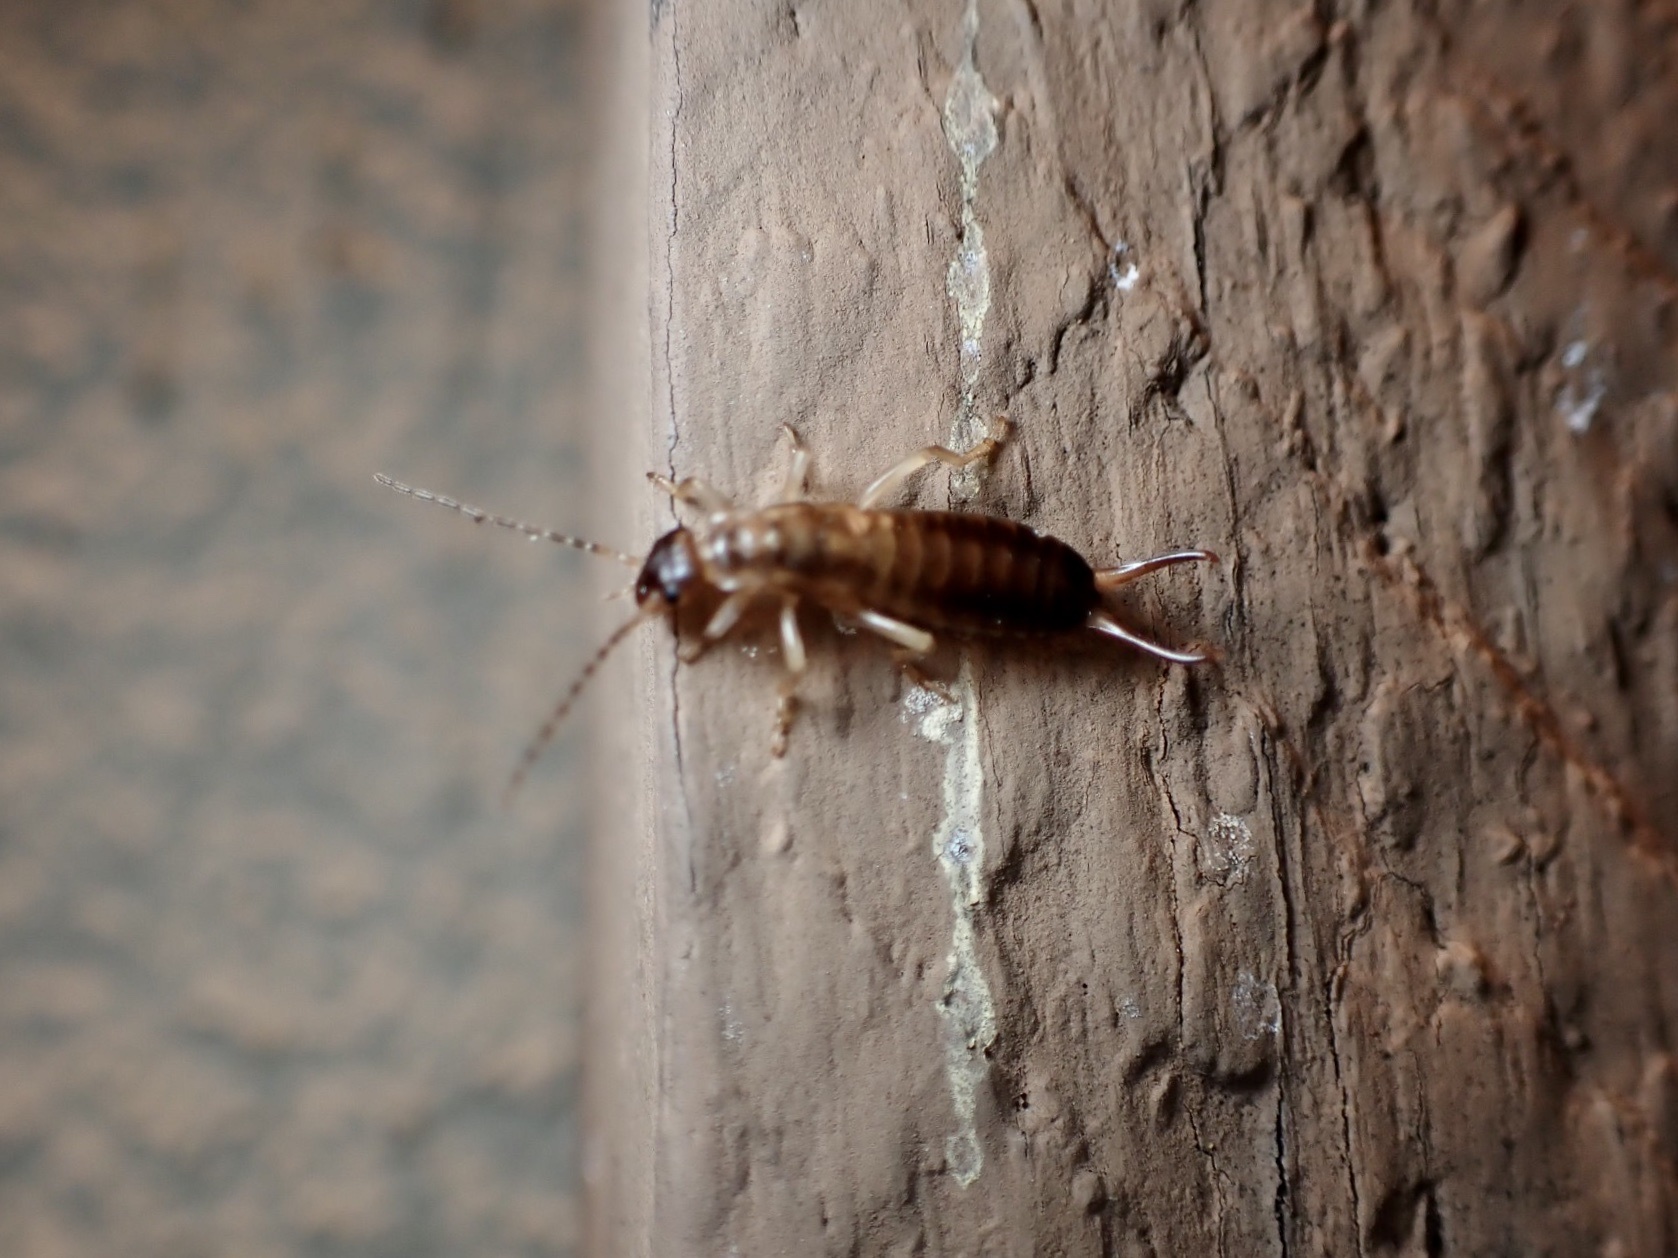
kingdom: Animalia
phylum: Arthropoda
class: Insecta
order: Dermaptera
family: Forficulidae
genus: Forficula
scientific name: Forficula
